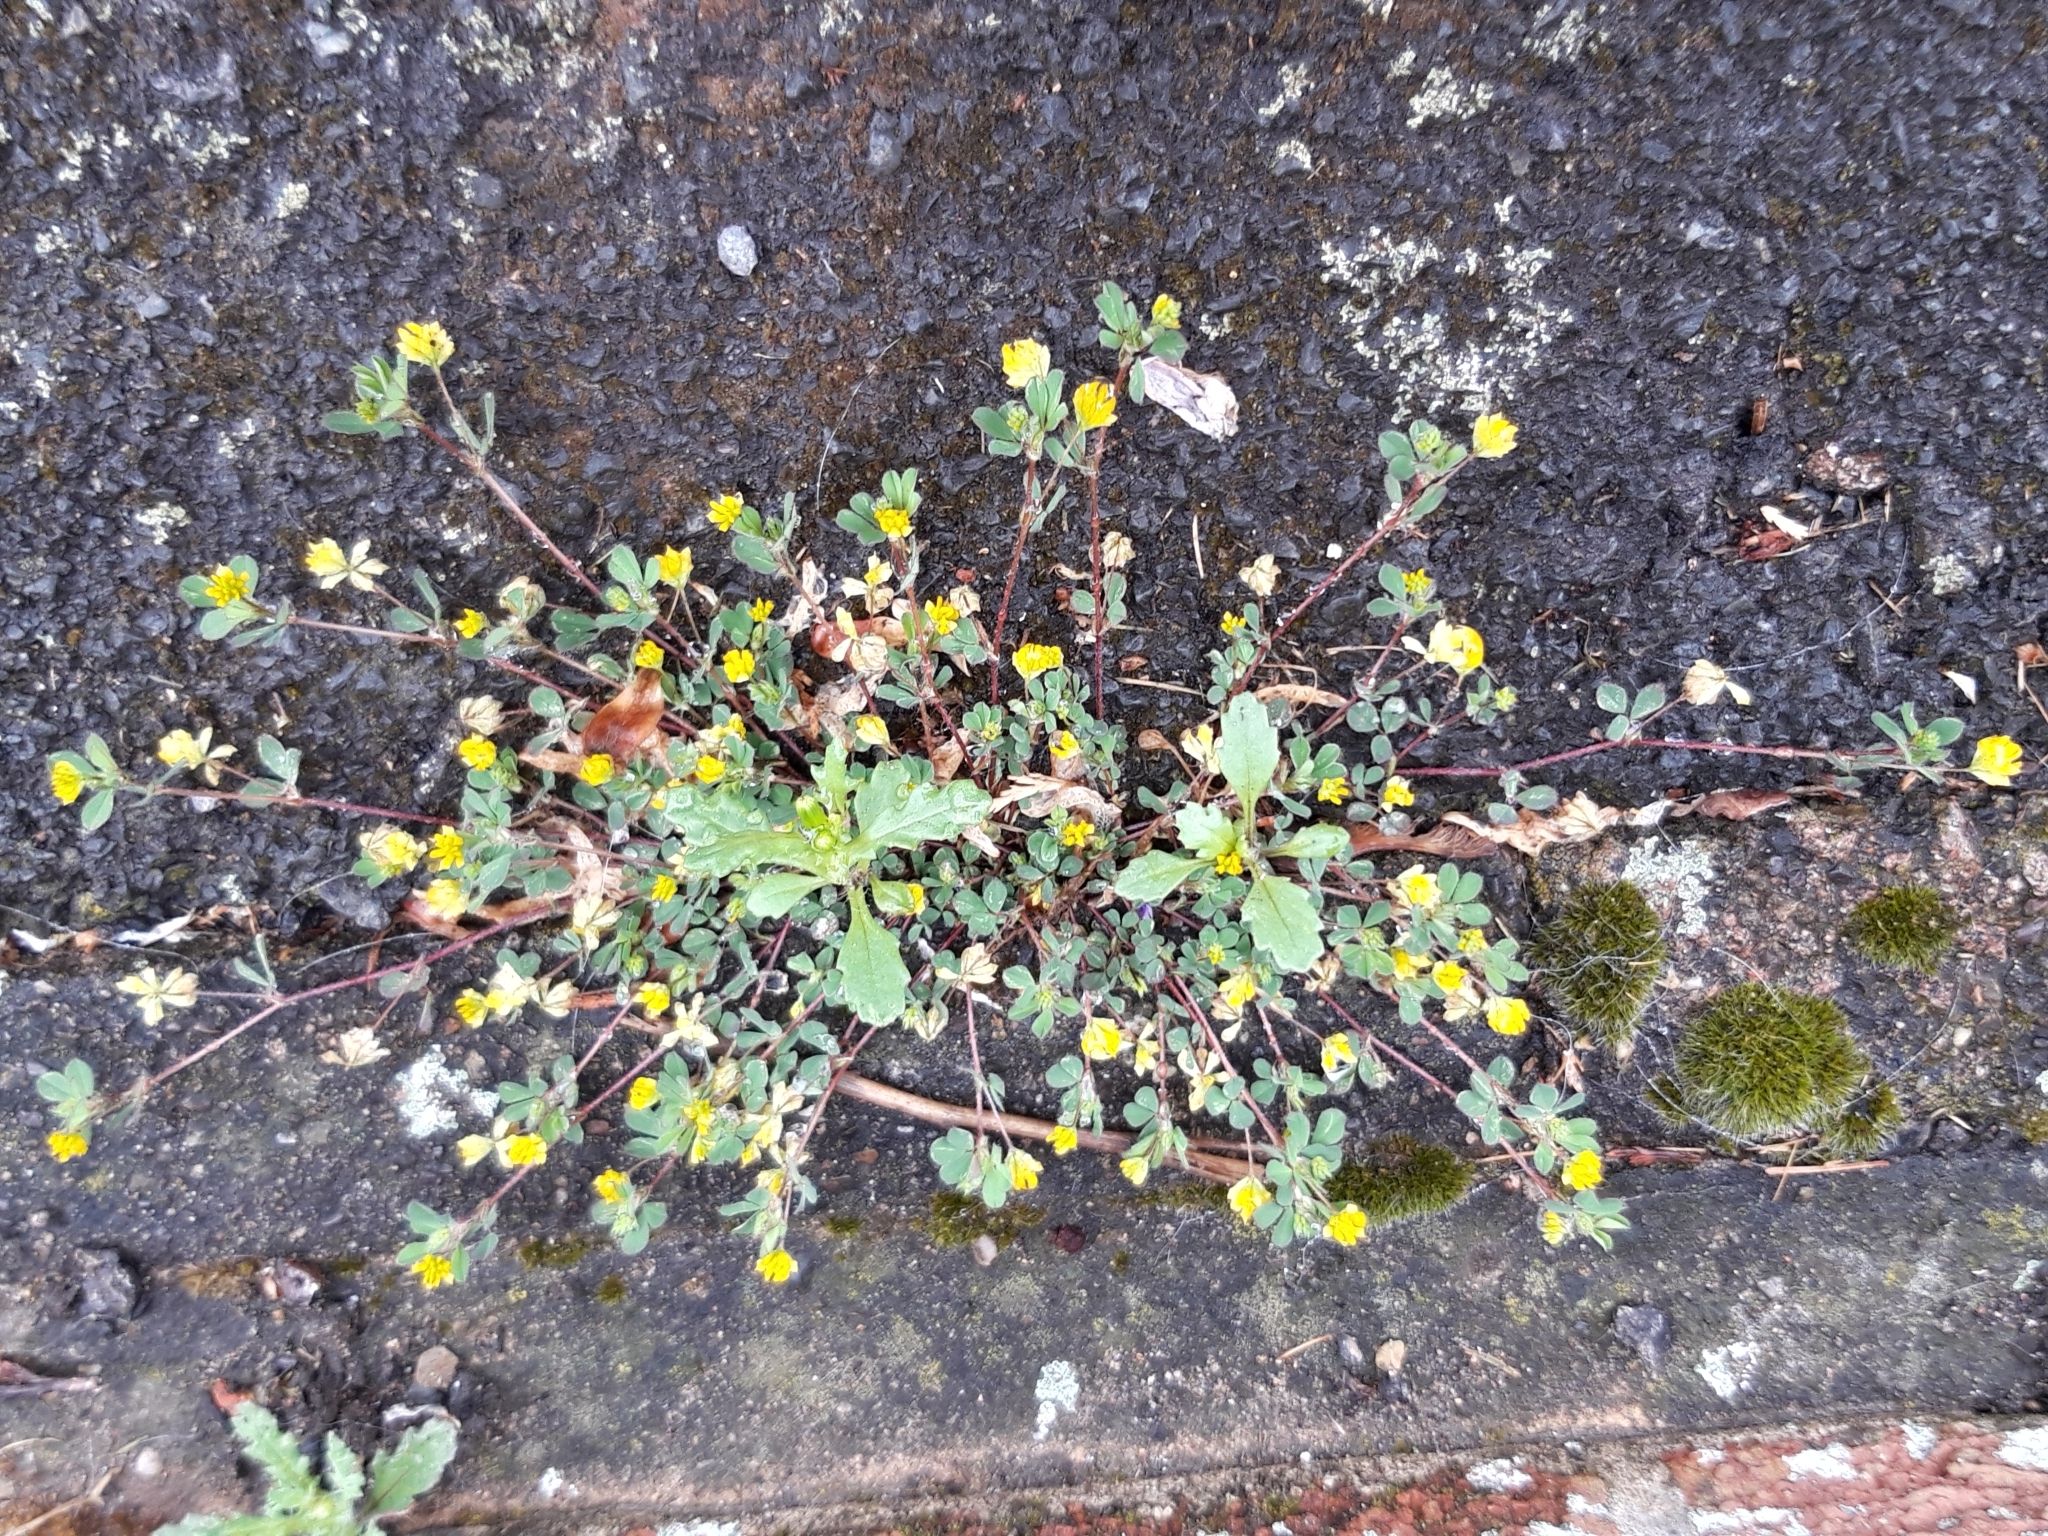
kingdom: Plantae
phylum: Tracheophyta
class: Magnoliopsida
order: Fabales
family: Fabaceae
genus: Trifolium
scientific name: Trifolium dubium
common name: Suckling clover
